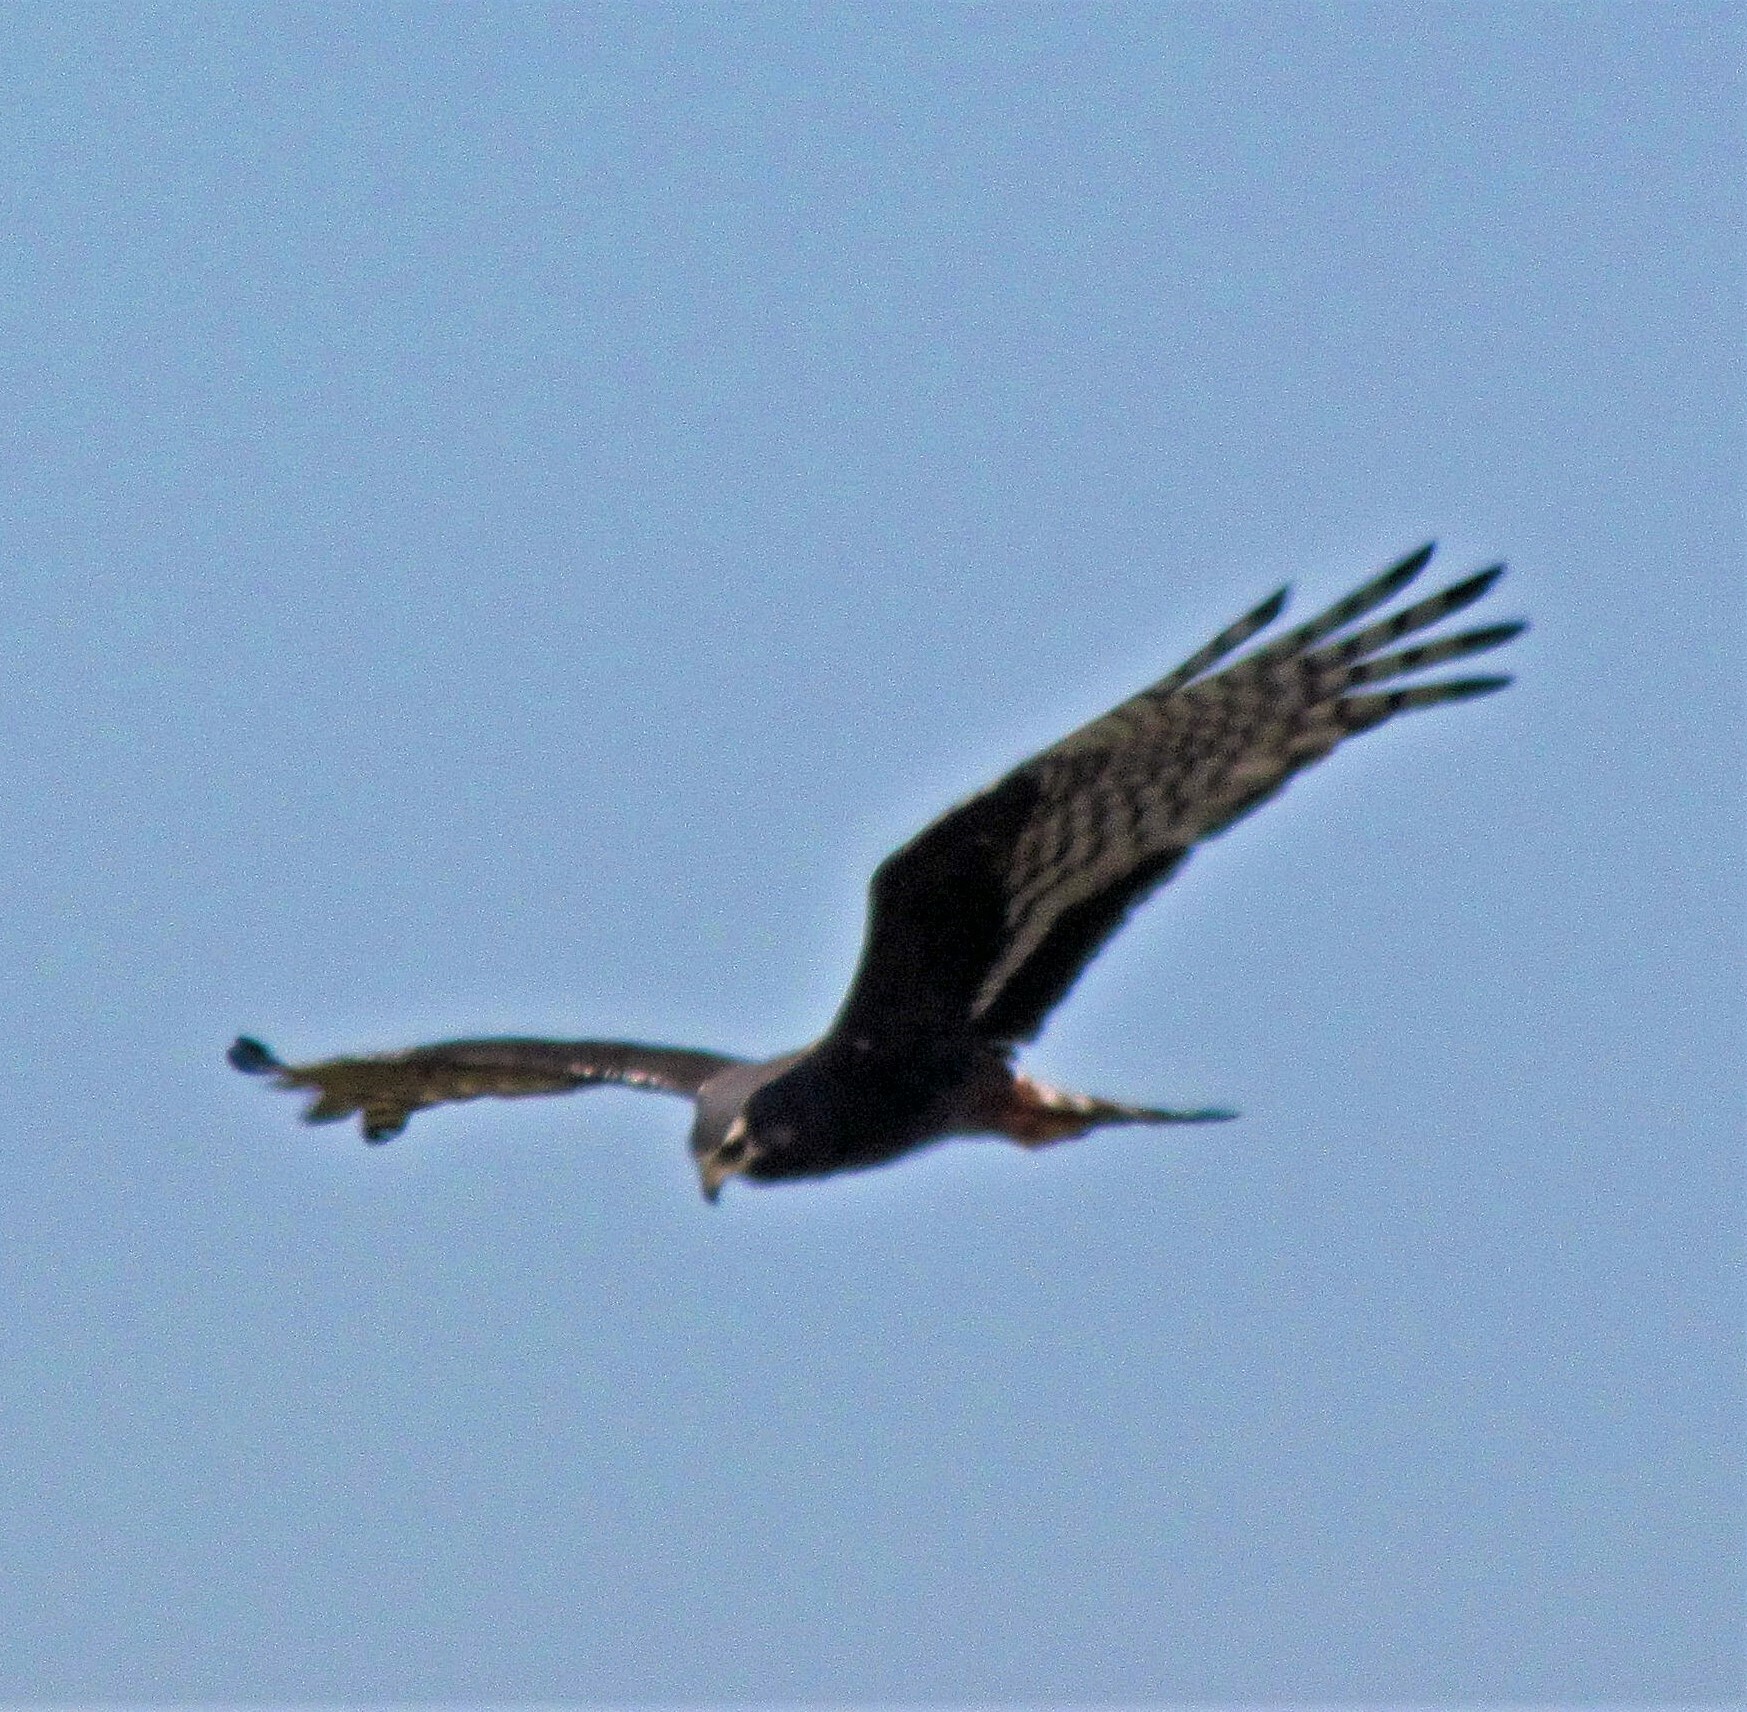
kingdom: Animalia
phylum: Chordata
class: Aves
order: Accipitriformes
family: Accipitridae
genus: Circus
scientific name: Circus buffoni
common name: Long-winged harrier
